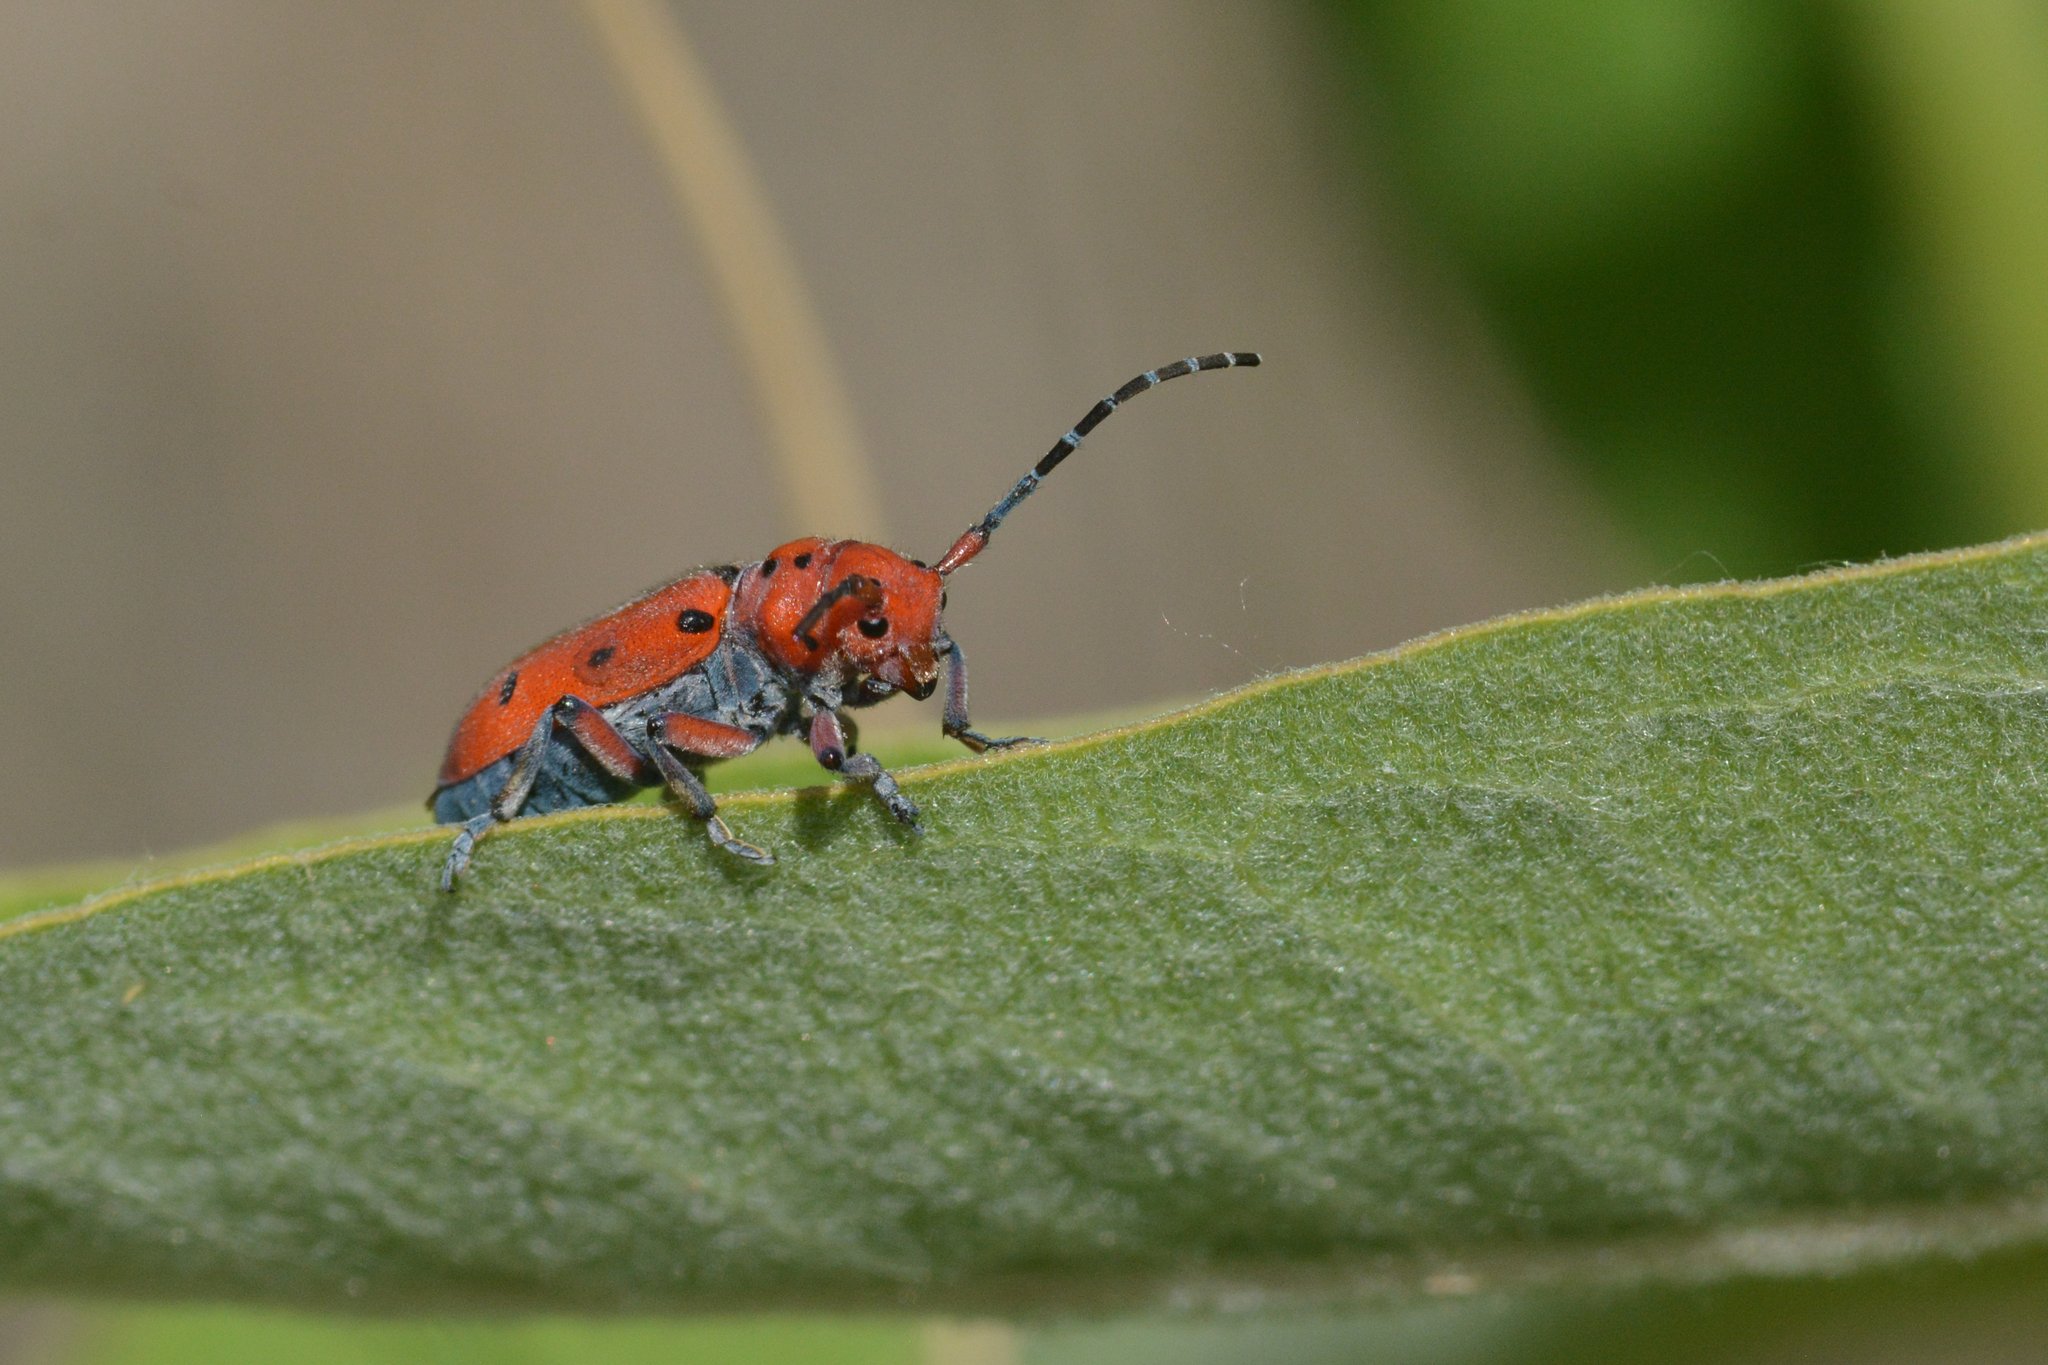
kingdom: Animalia
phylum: Arthropoda
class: Insecta
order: Coleoptera
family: Cerambycidae
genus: Tetraopes
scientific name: Tetraopes femoratus
